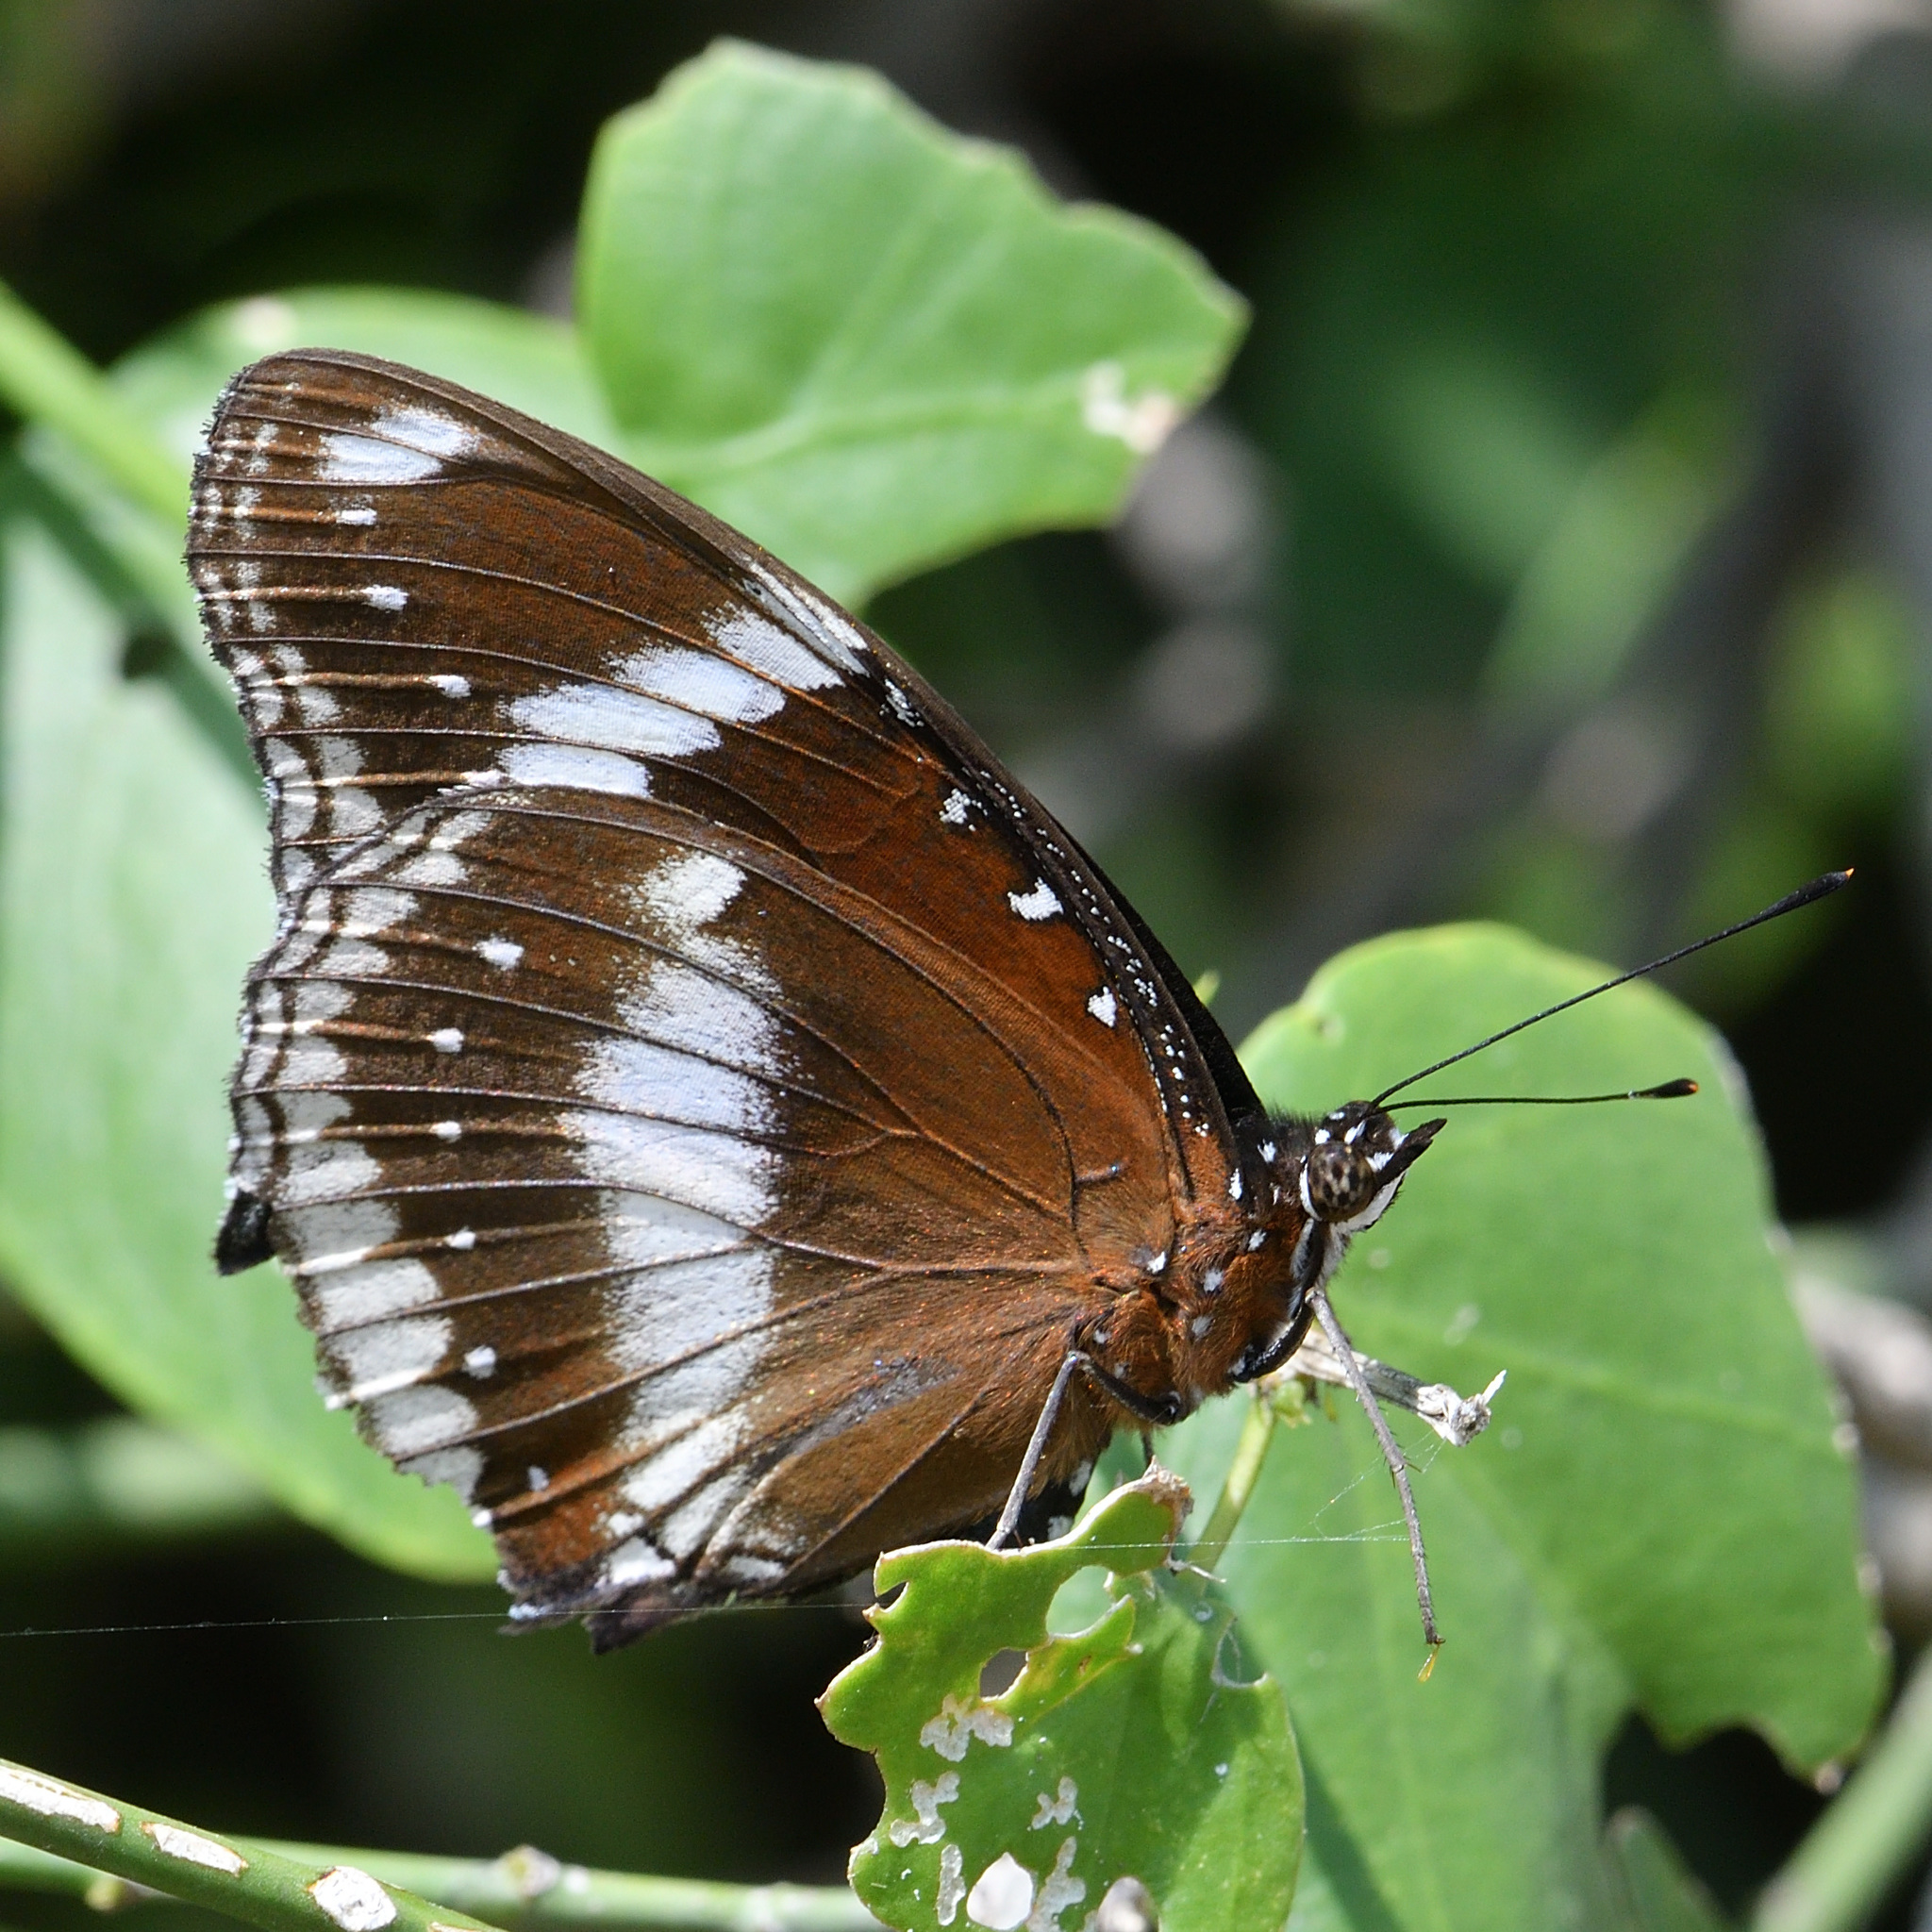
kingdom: Animalia
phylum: Arthropoda
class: Insecta
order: Lepidoptera
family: Nymphalidae
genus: Hypolimnas
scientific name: Hypolimnas bolina
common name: Great eggfly
